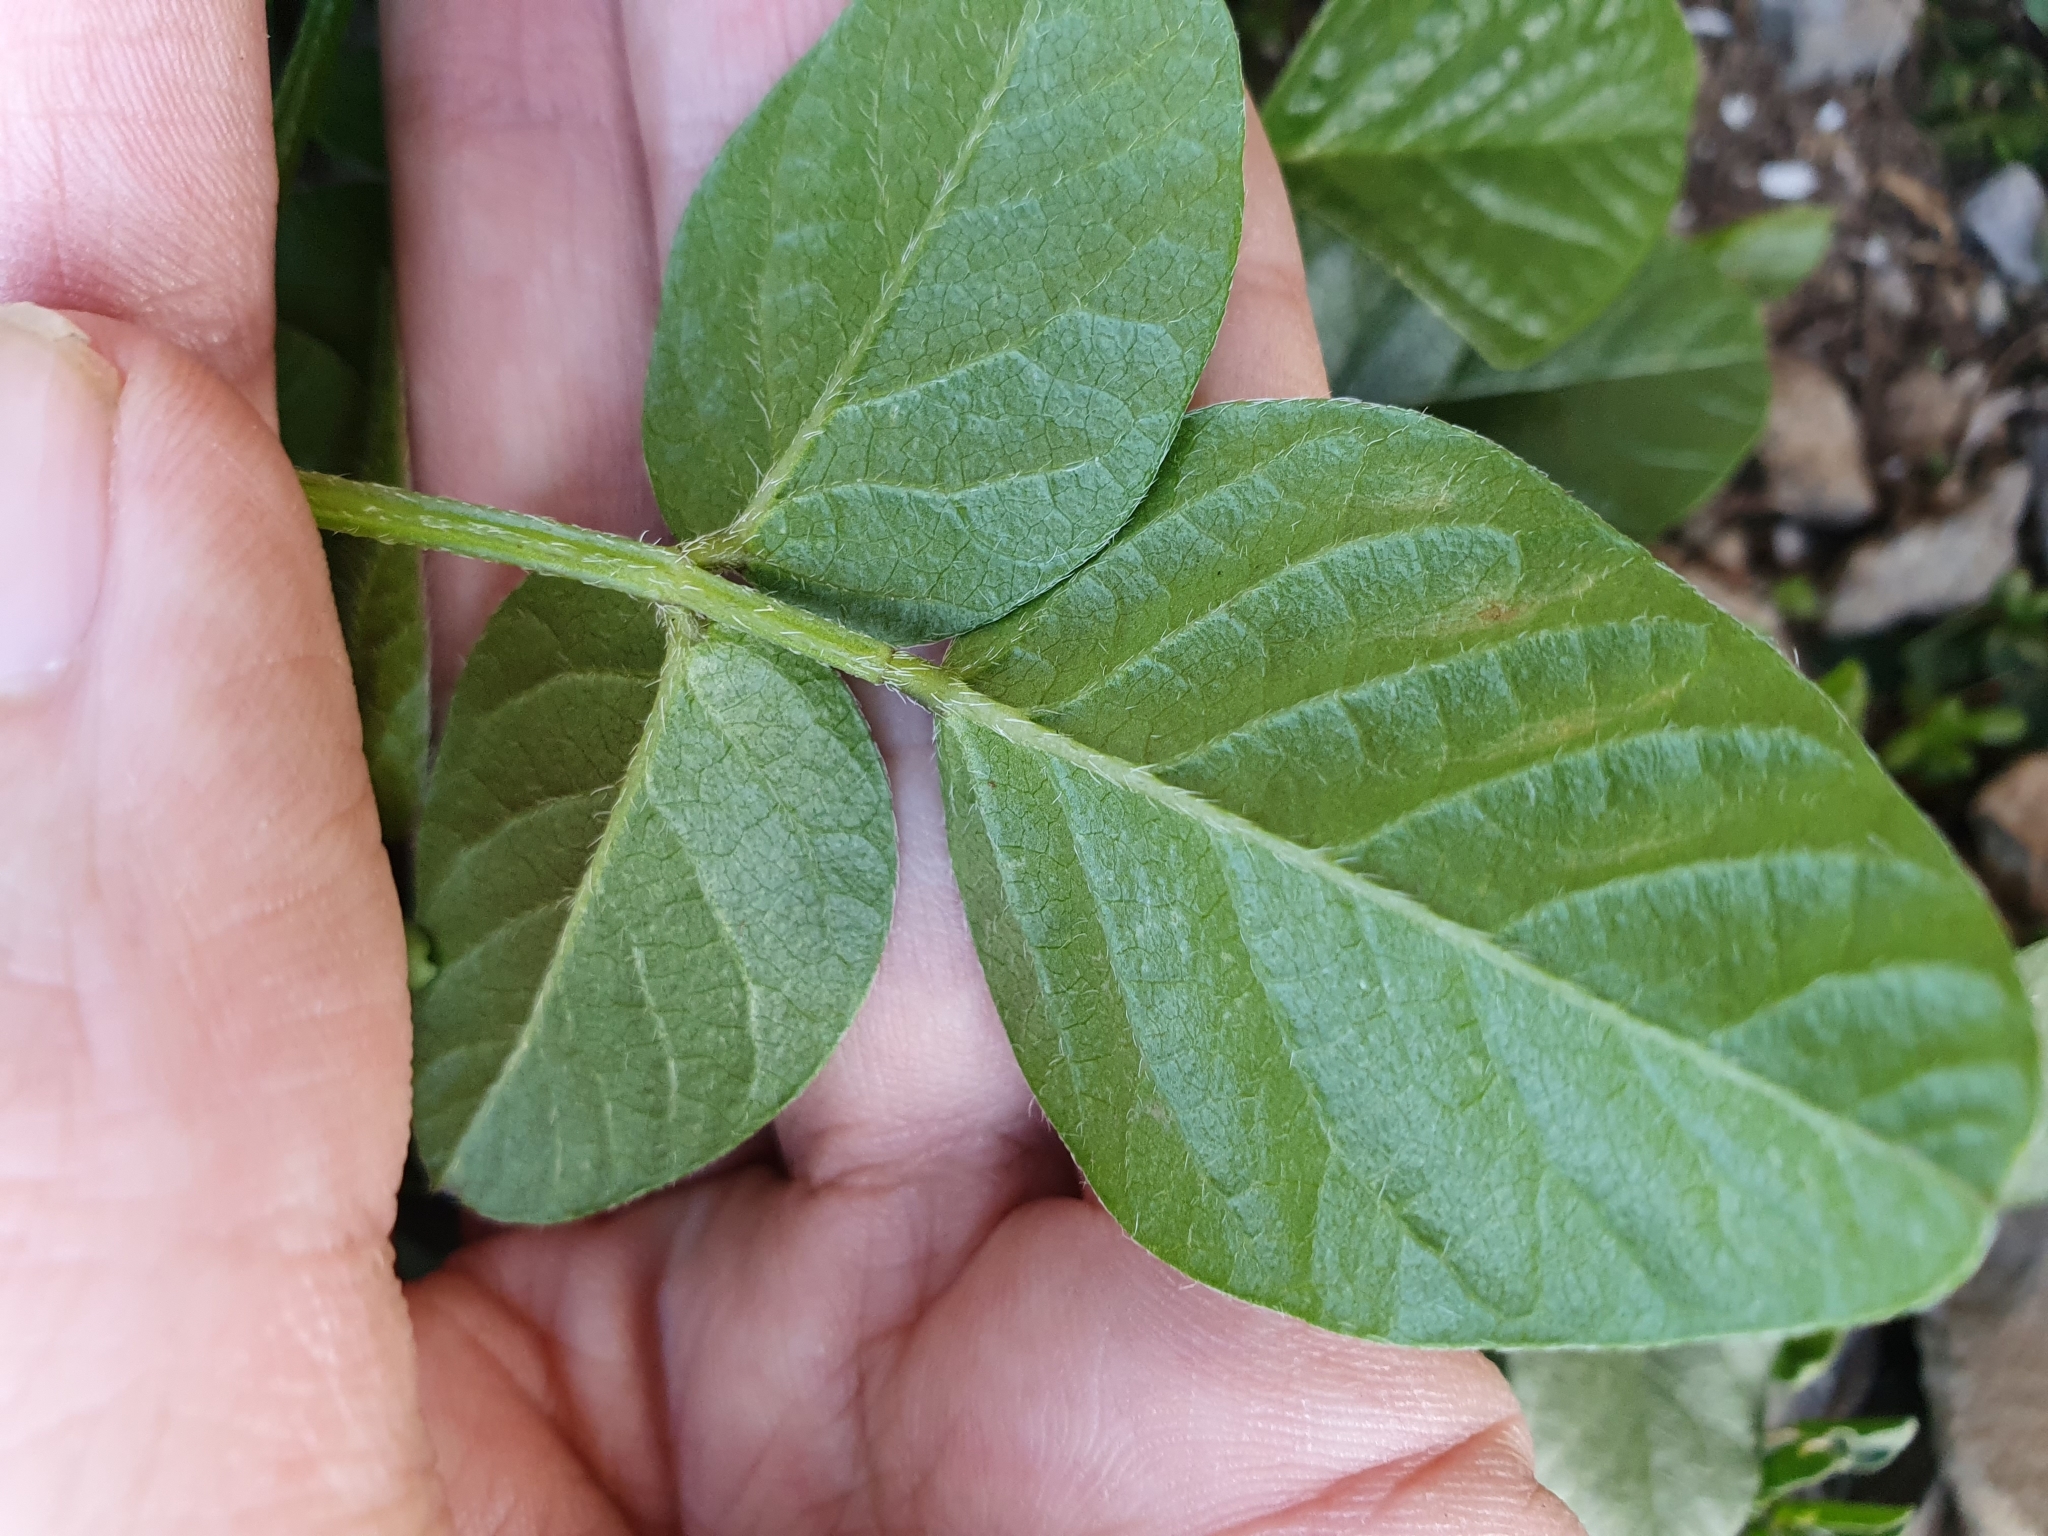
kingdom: Plantae
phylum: Tracheophyta
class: Magnoliopsida
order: Fabales
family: Fabaceae
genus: Bituminaria
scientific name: Bituminaria bituminosa
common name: Arabian pea
